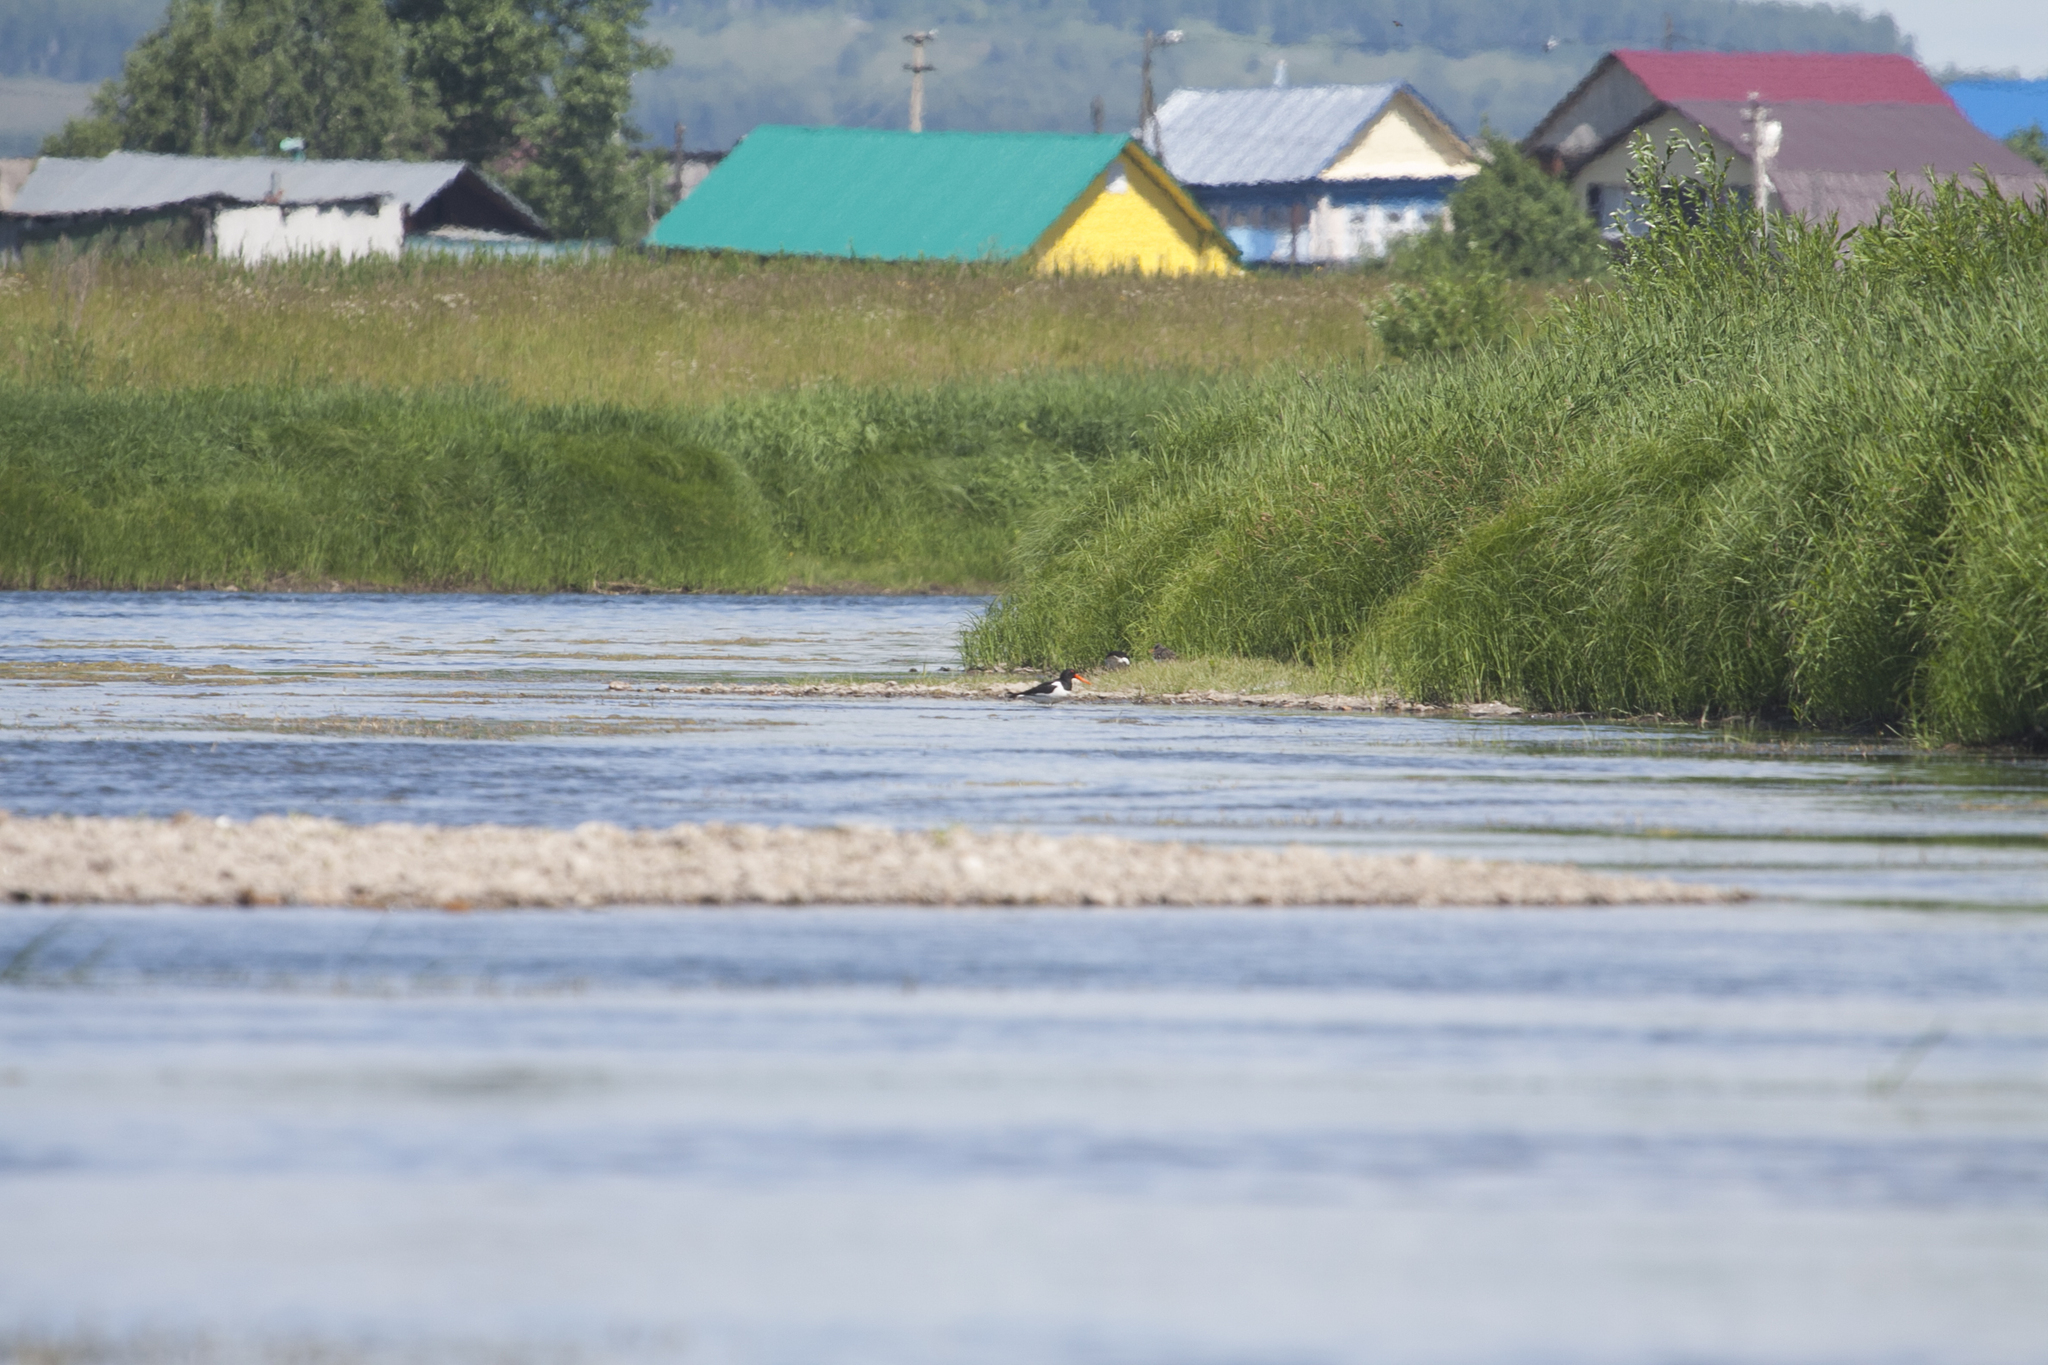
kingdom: Animalia
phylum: Chordata
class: Aves
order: Charadriiformes
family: Haematopodidae
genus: Haematopus
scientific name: Haematopus ostralegus
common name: Eurasian oystercatcher
